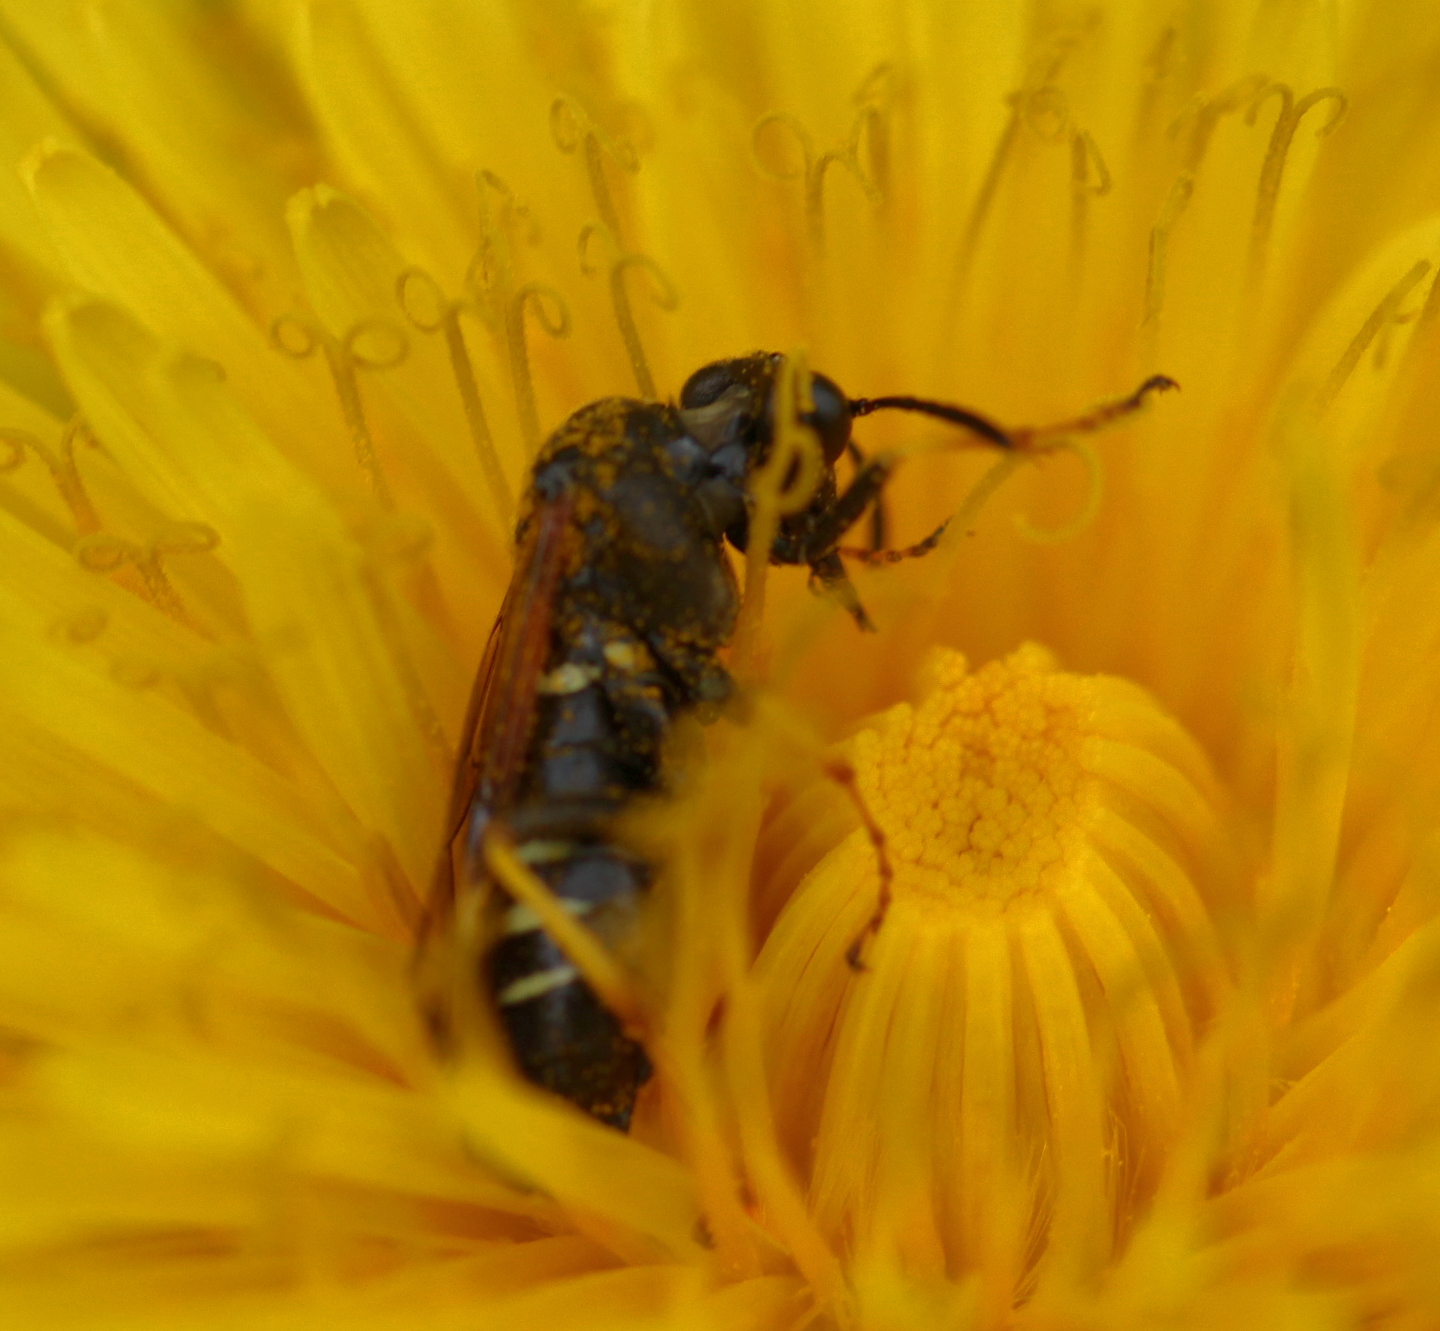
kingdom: Animalia
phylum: Arthropoda
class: Insecta
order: Hymenoptera
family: Tenthredinidae
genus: Tenthredo
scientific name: Tenthredo koehleri
